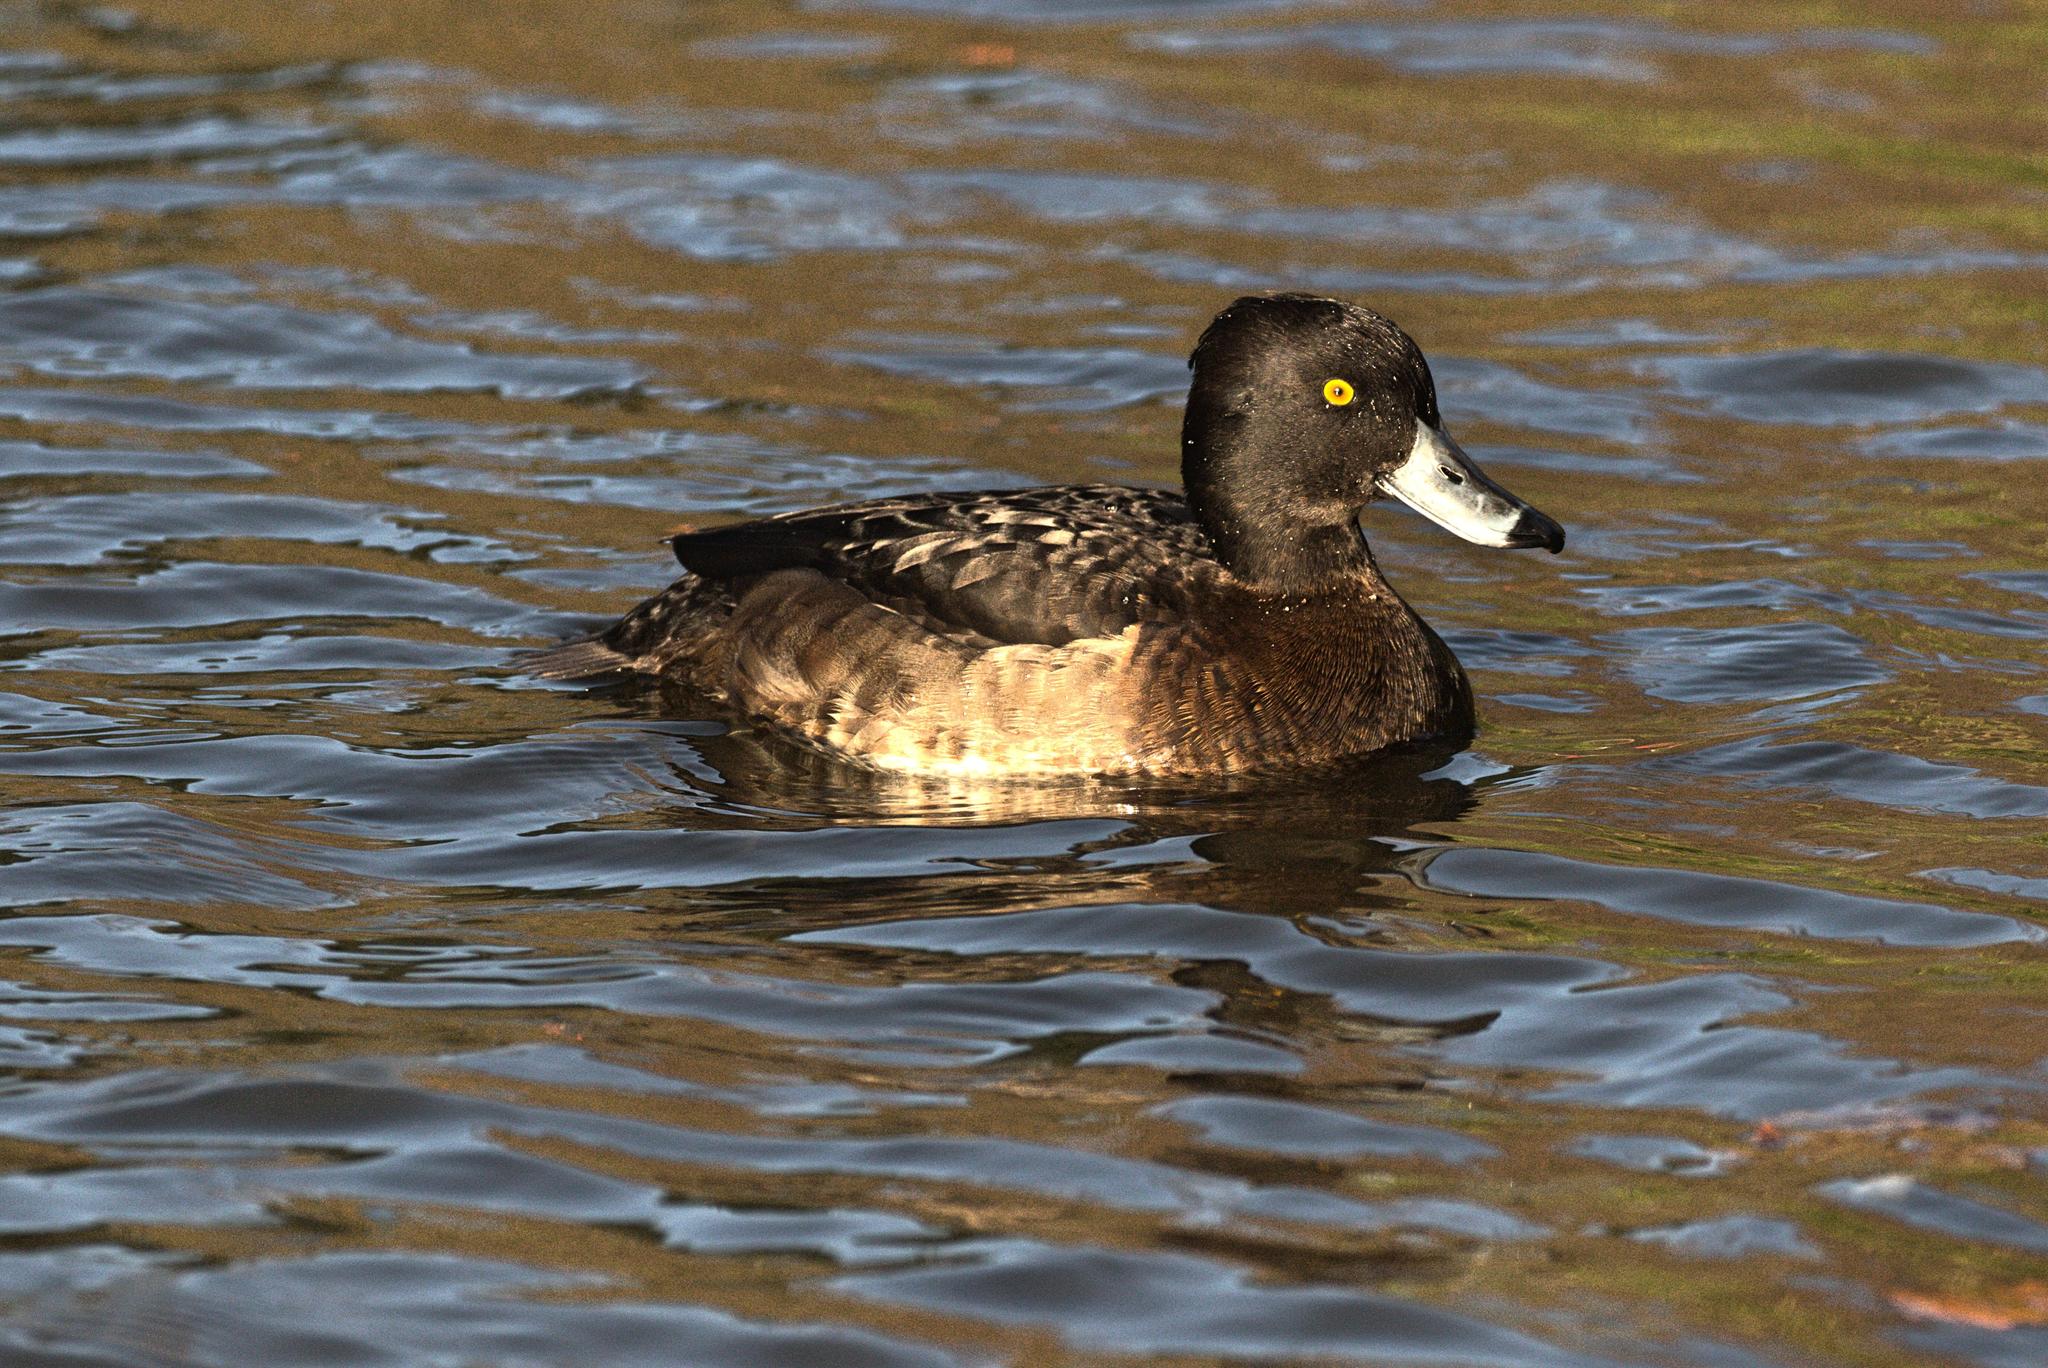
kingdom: Animalia
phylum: Chordata
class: Aves
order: Anseriformes
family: Anatidae
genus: Aythya
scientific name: Aythya fuligula
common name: Tufted duck
